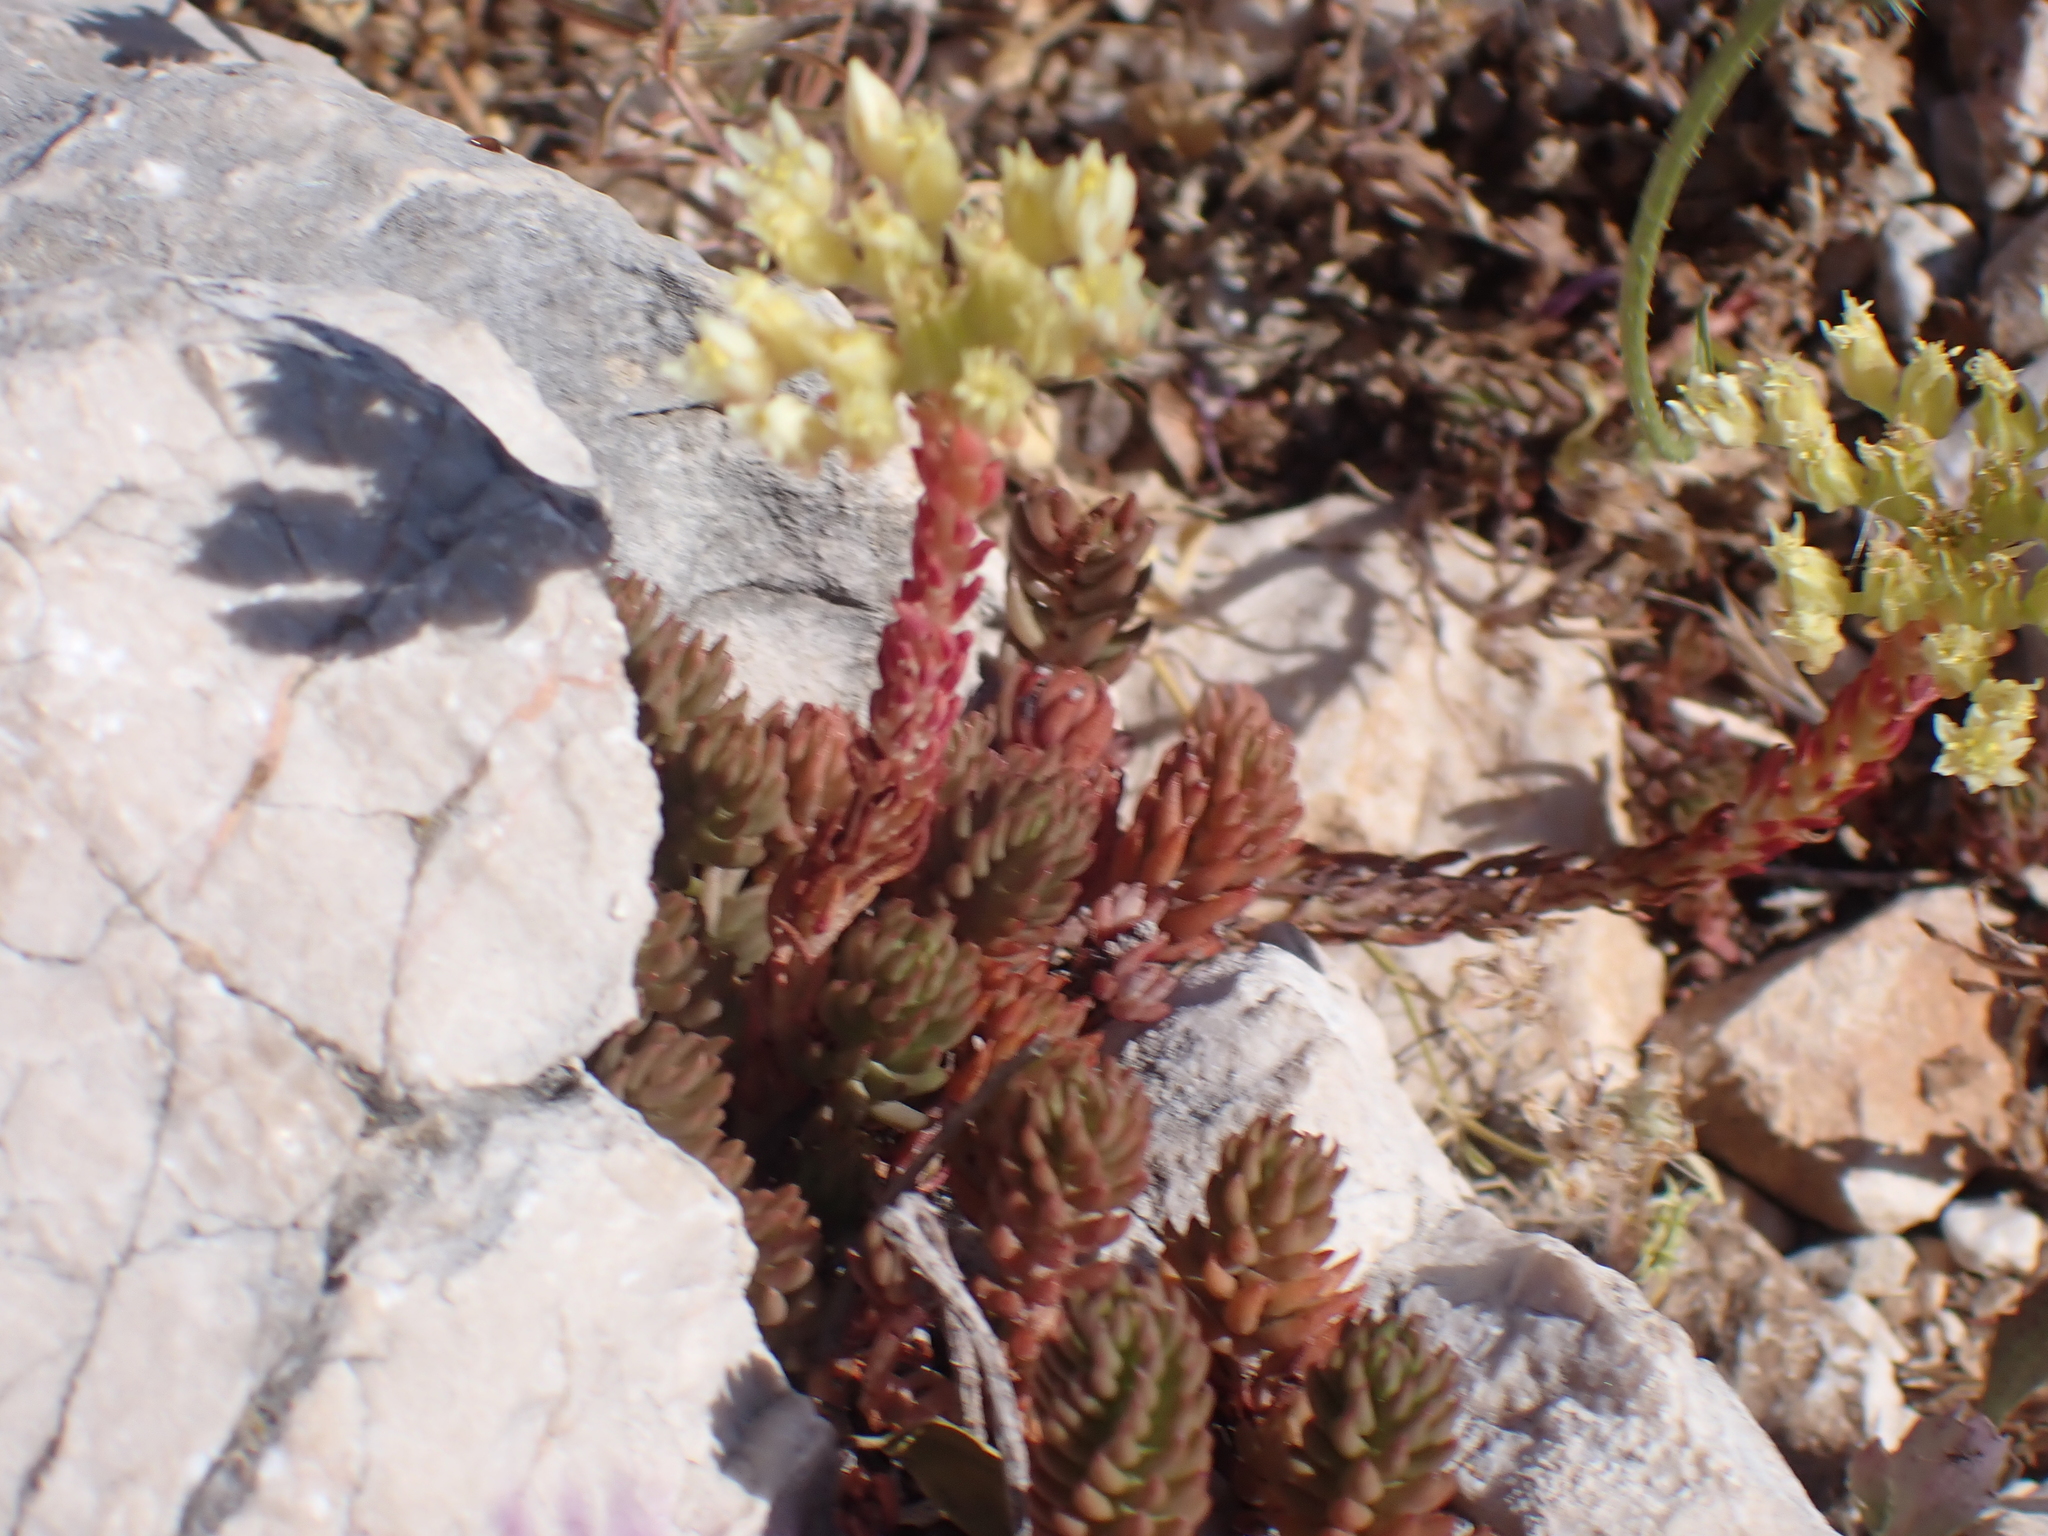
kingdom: Plantae
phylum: Tracheophyta
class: Magnoliopsida
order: Saxifragales
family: Crassulaceae
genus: Petrosedum
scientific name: Petrosedum ochroleucum
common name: European stonecrop
